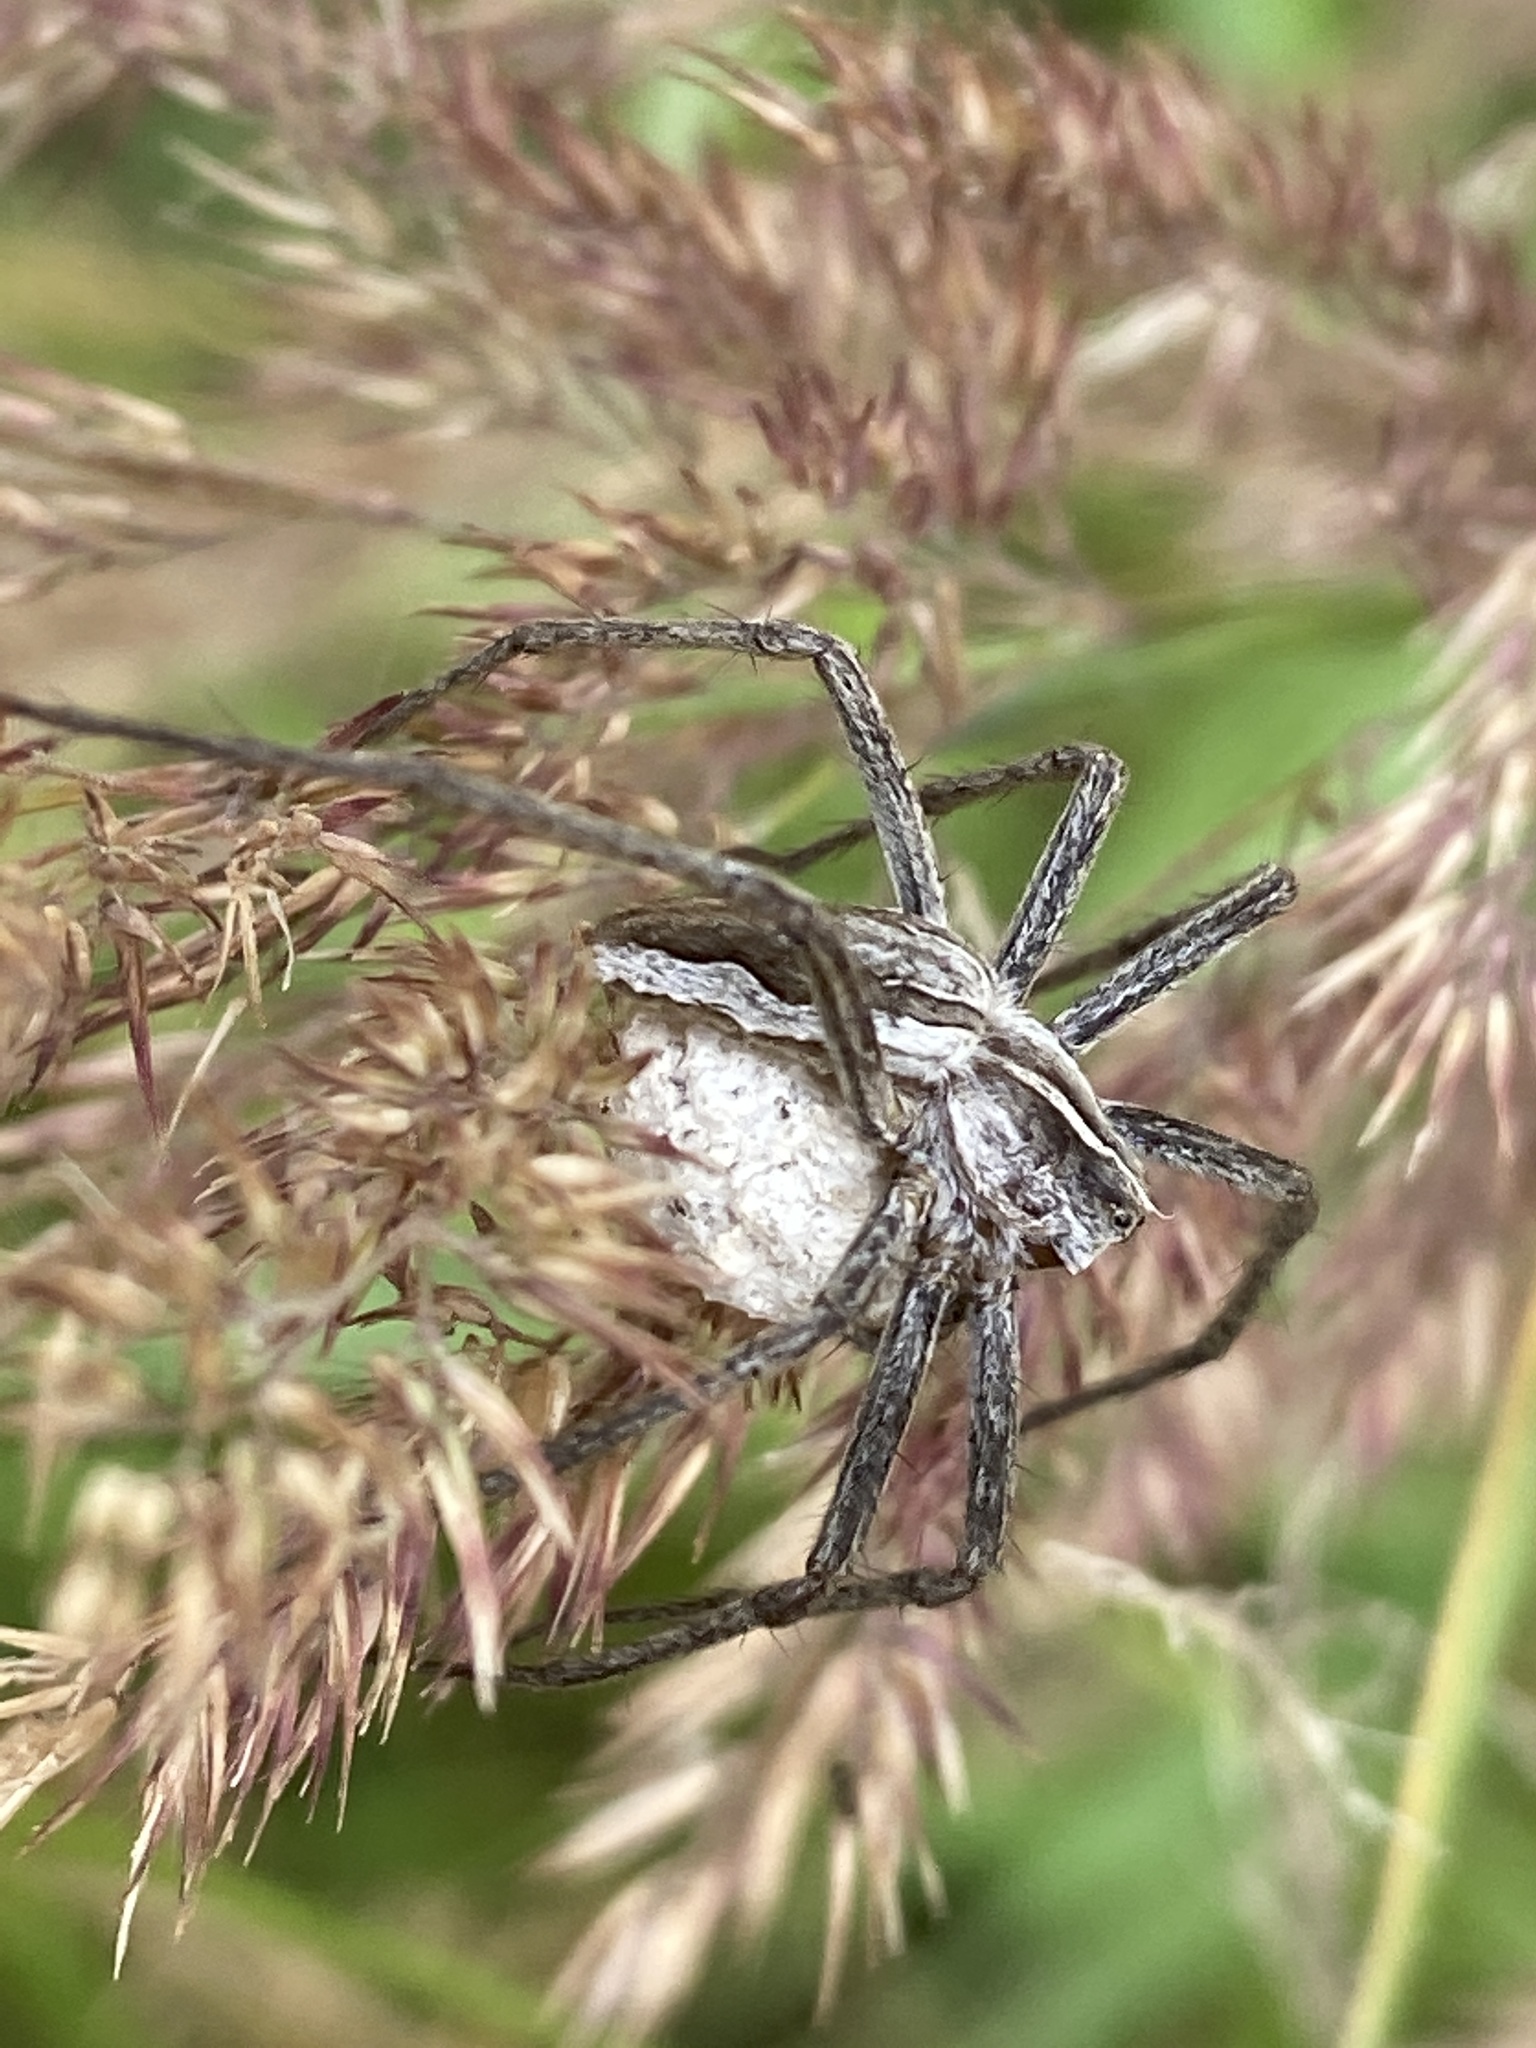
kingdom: Animalia
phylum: Arthropoda
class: Arachnida
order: Araneae
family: Pisauridae
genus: Pisaura
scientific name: Pisaura mirabilis
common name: Tent spider
